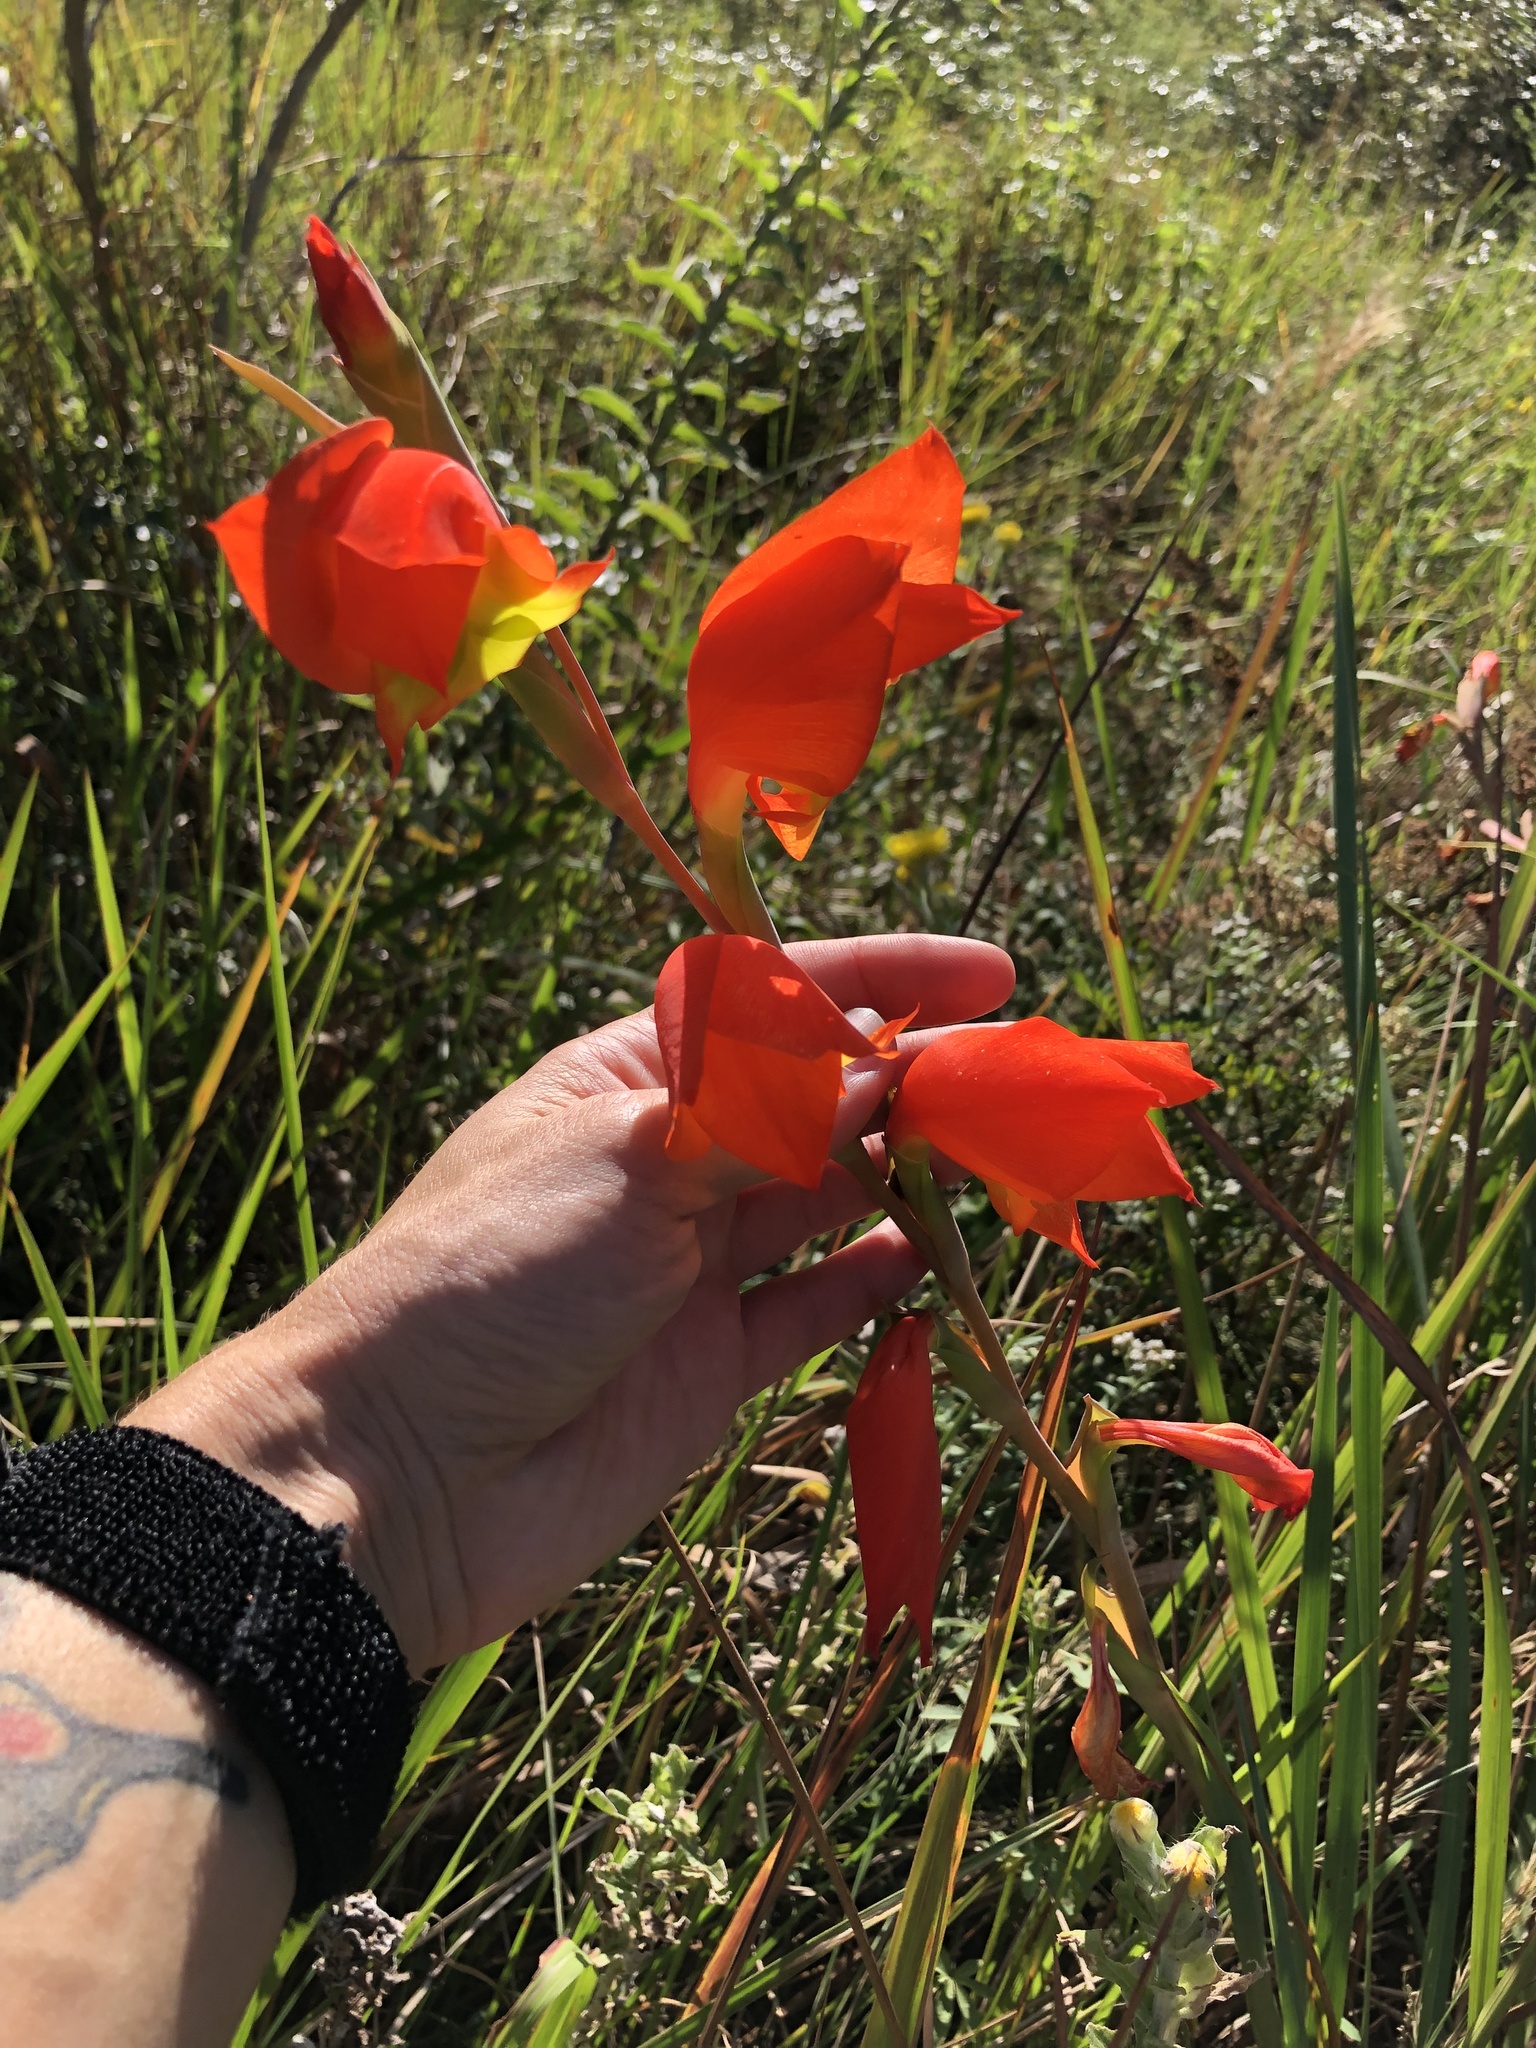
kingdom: Plantae
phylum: Tracheophyta
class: Liliopsida
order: Asparagales
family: Iridaceae
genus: Gladiolus
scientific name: Gladiolus dalenii
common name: Cornflag
